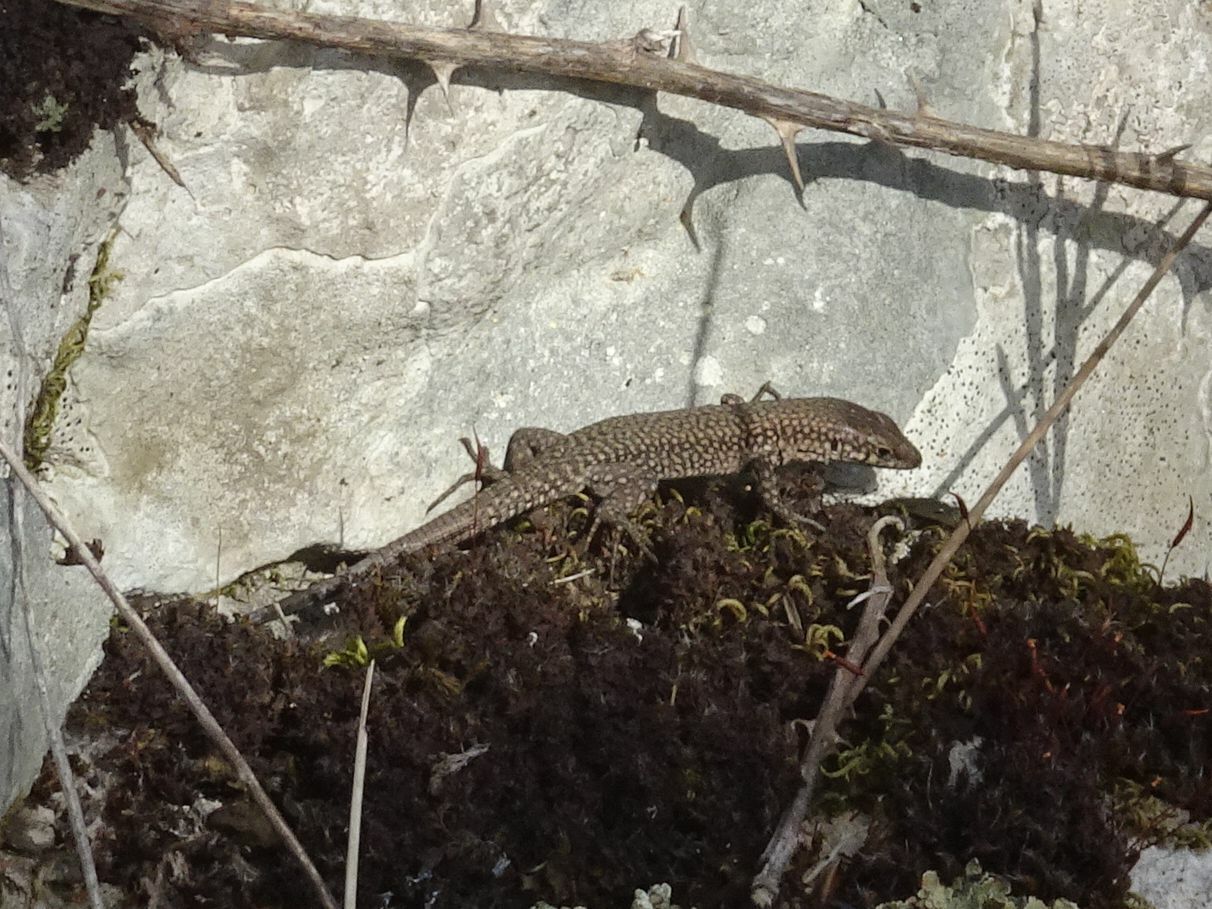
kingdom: Animalia
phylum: Chordata
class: Squamata
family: Lacertidae
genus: Podarcis
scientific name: Podarcis liolepis
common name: Catalonian wall lizard
